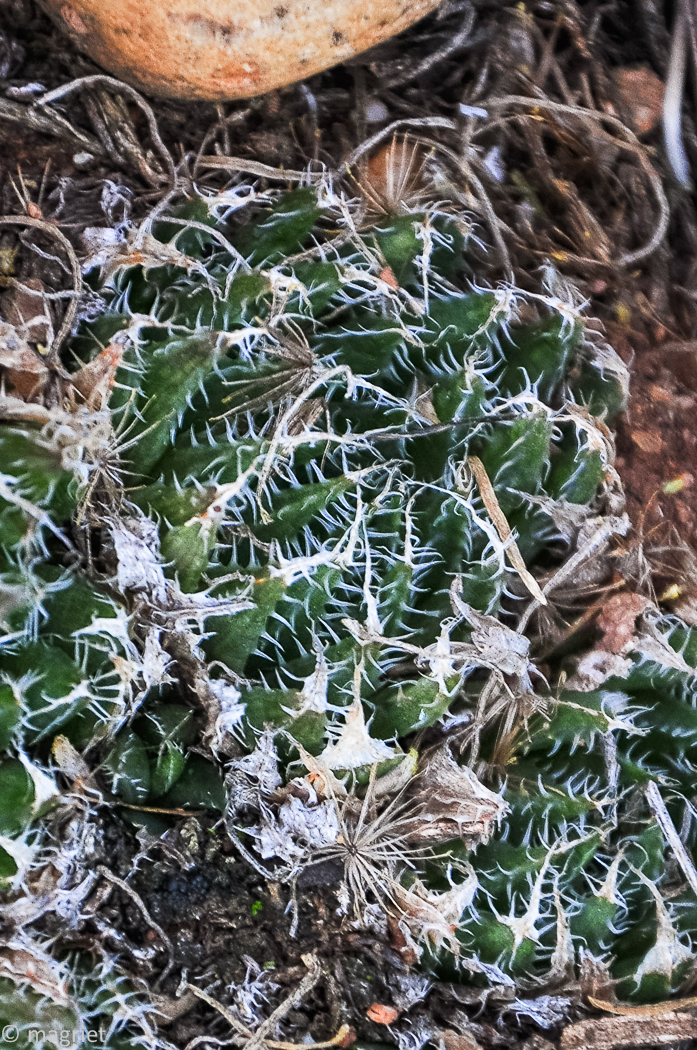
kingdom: Plantae
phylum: Tracheophyta
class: Liliopsida
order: Asparagales
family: Asphodelaceae
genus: Haworthia
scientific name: Haworthia arachnoidea
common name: Cobweb-aloe
